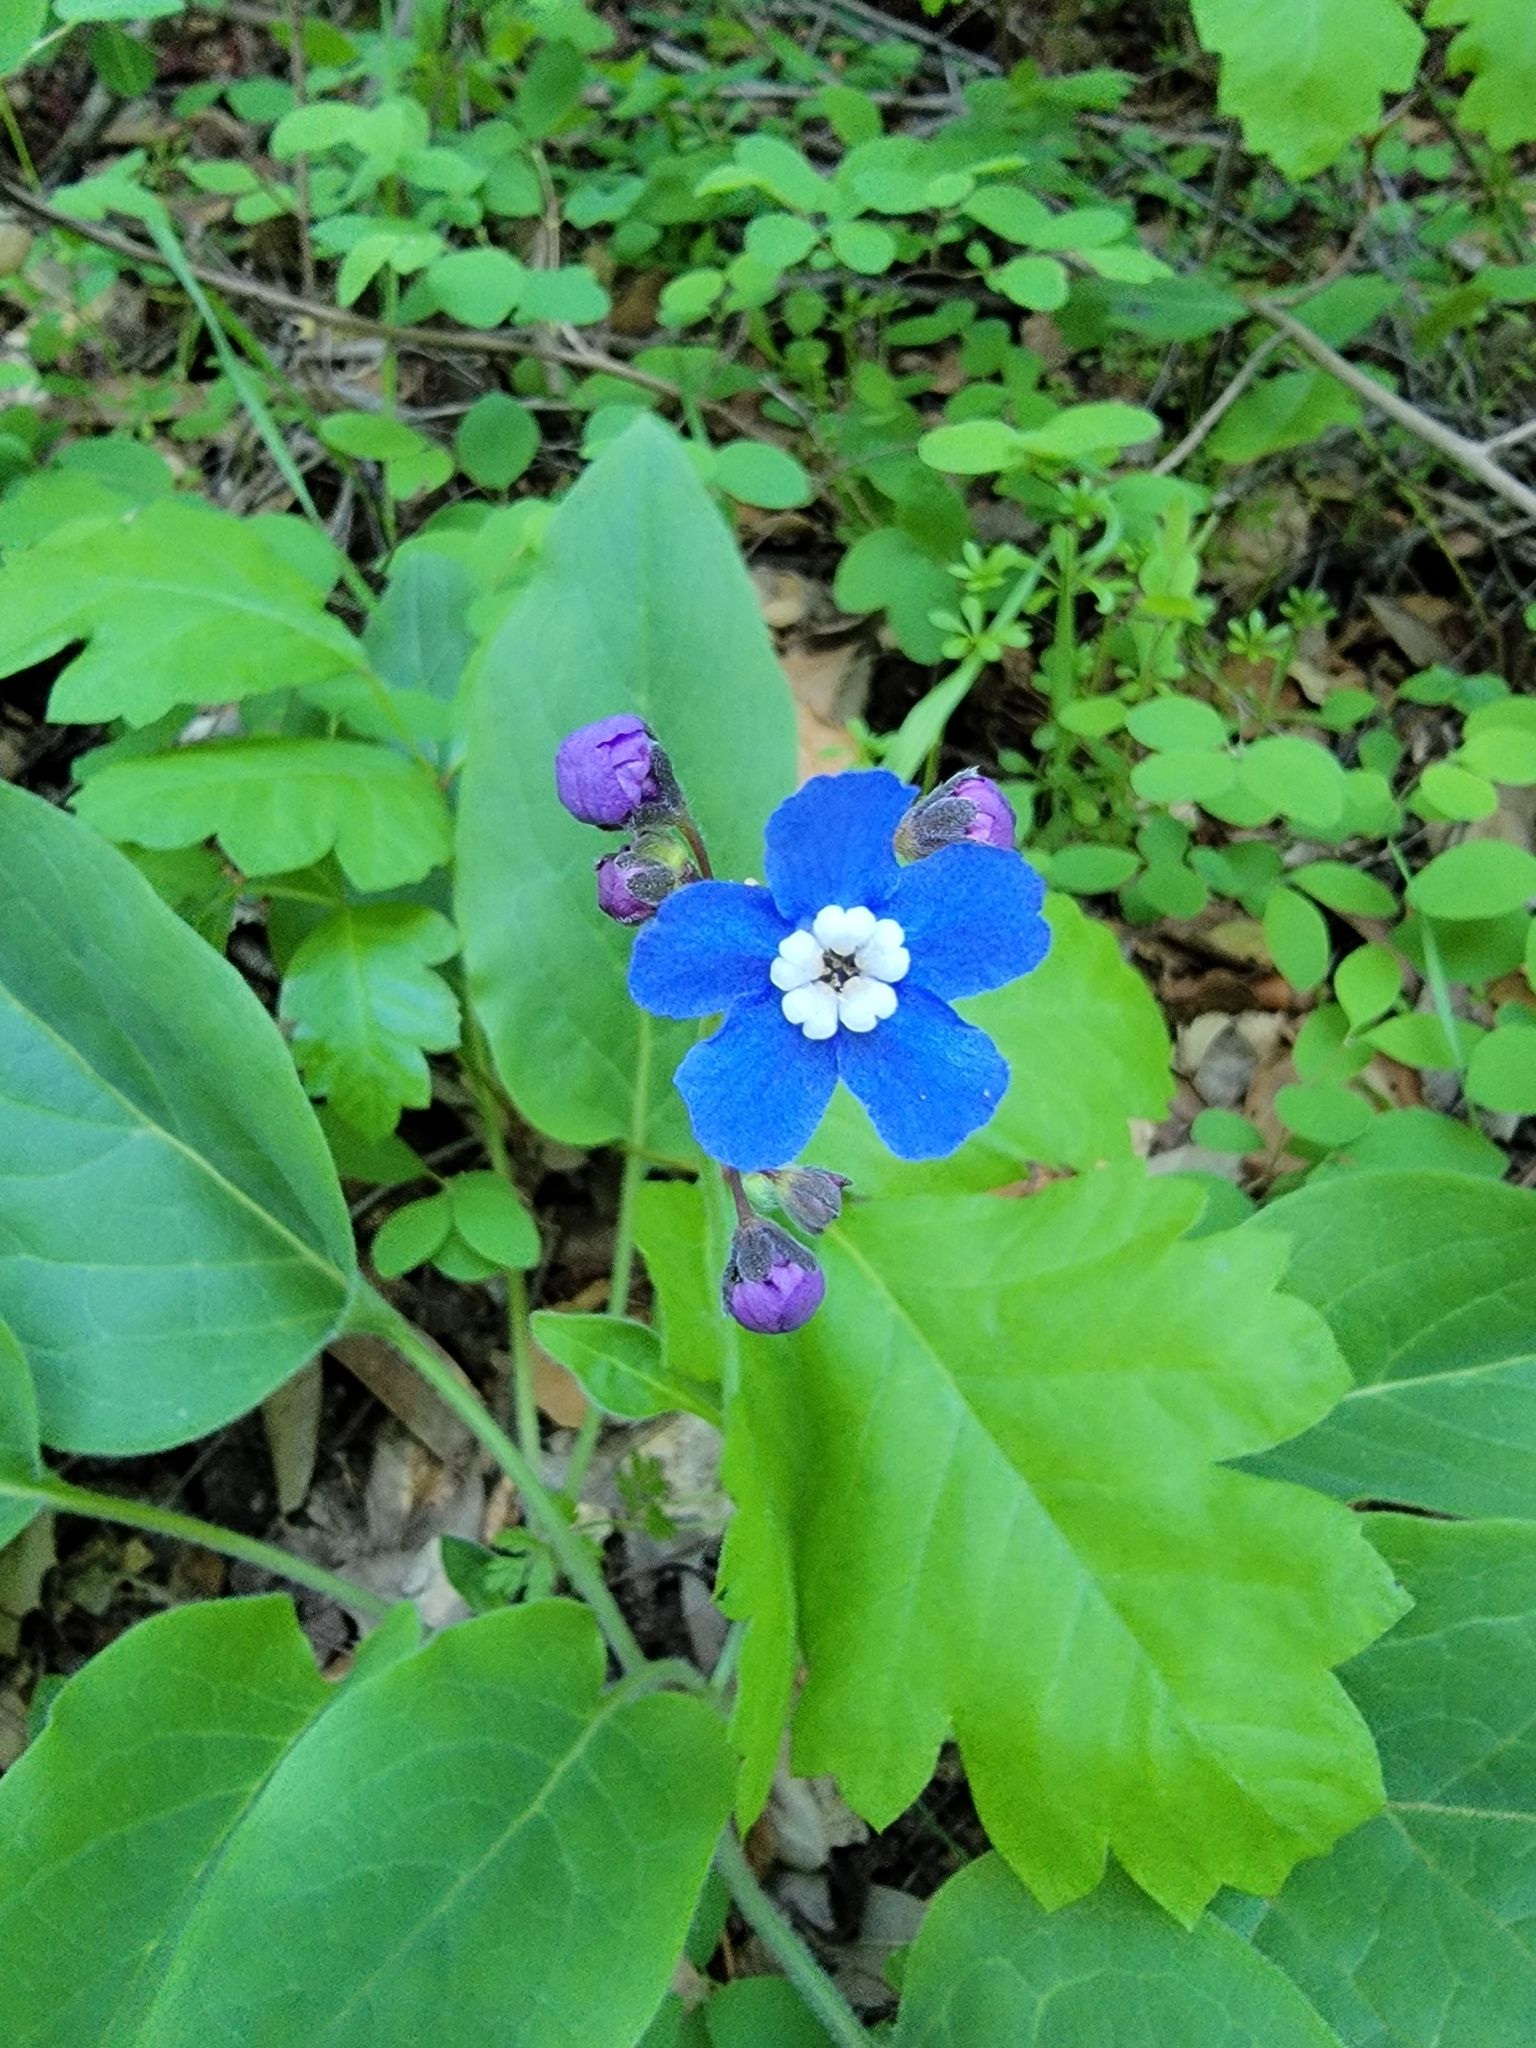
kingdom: Plantae
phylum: Tracheophyta
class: Magnoliopsida
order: Boraginales
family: Boraginaceae
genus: Adelinia
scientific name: Adelinia grande
